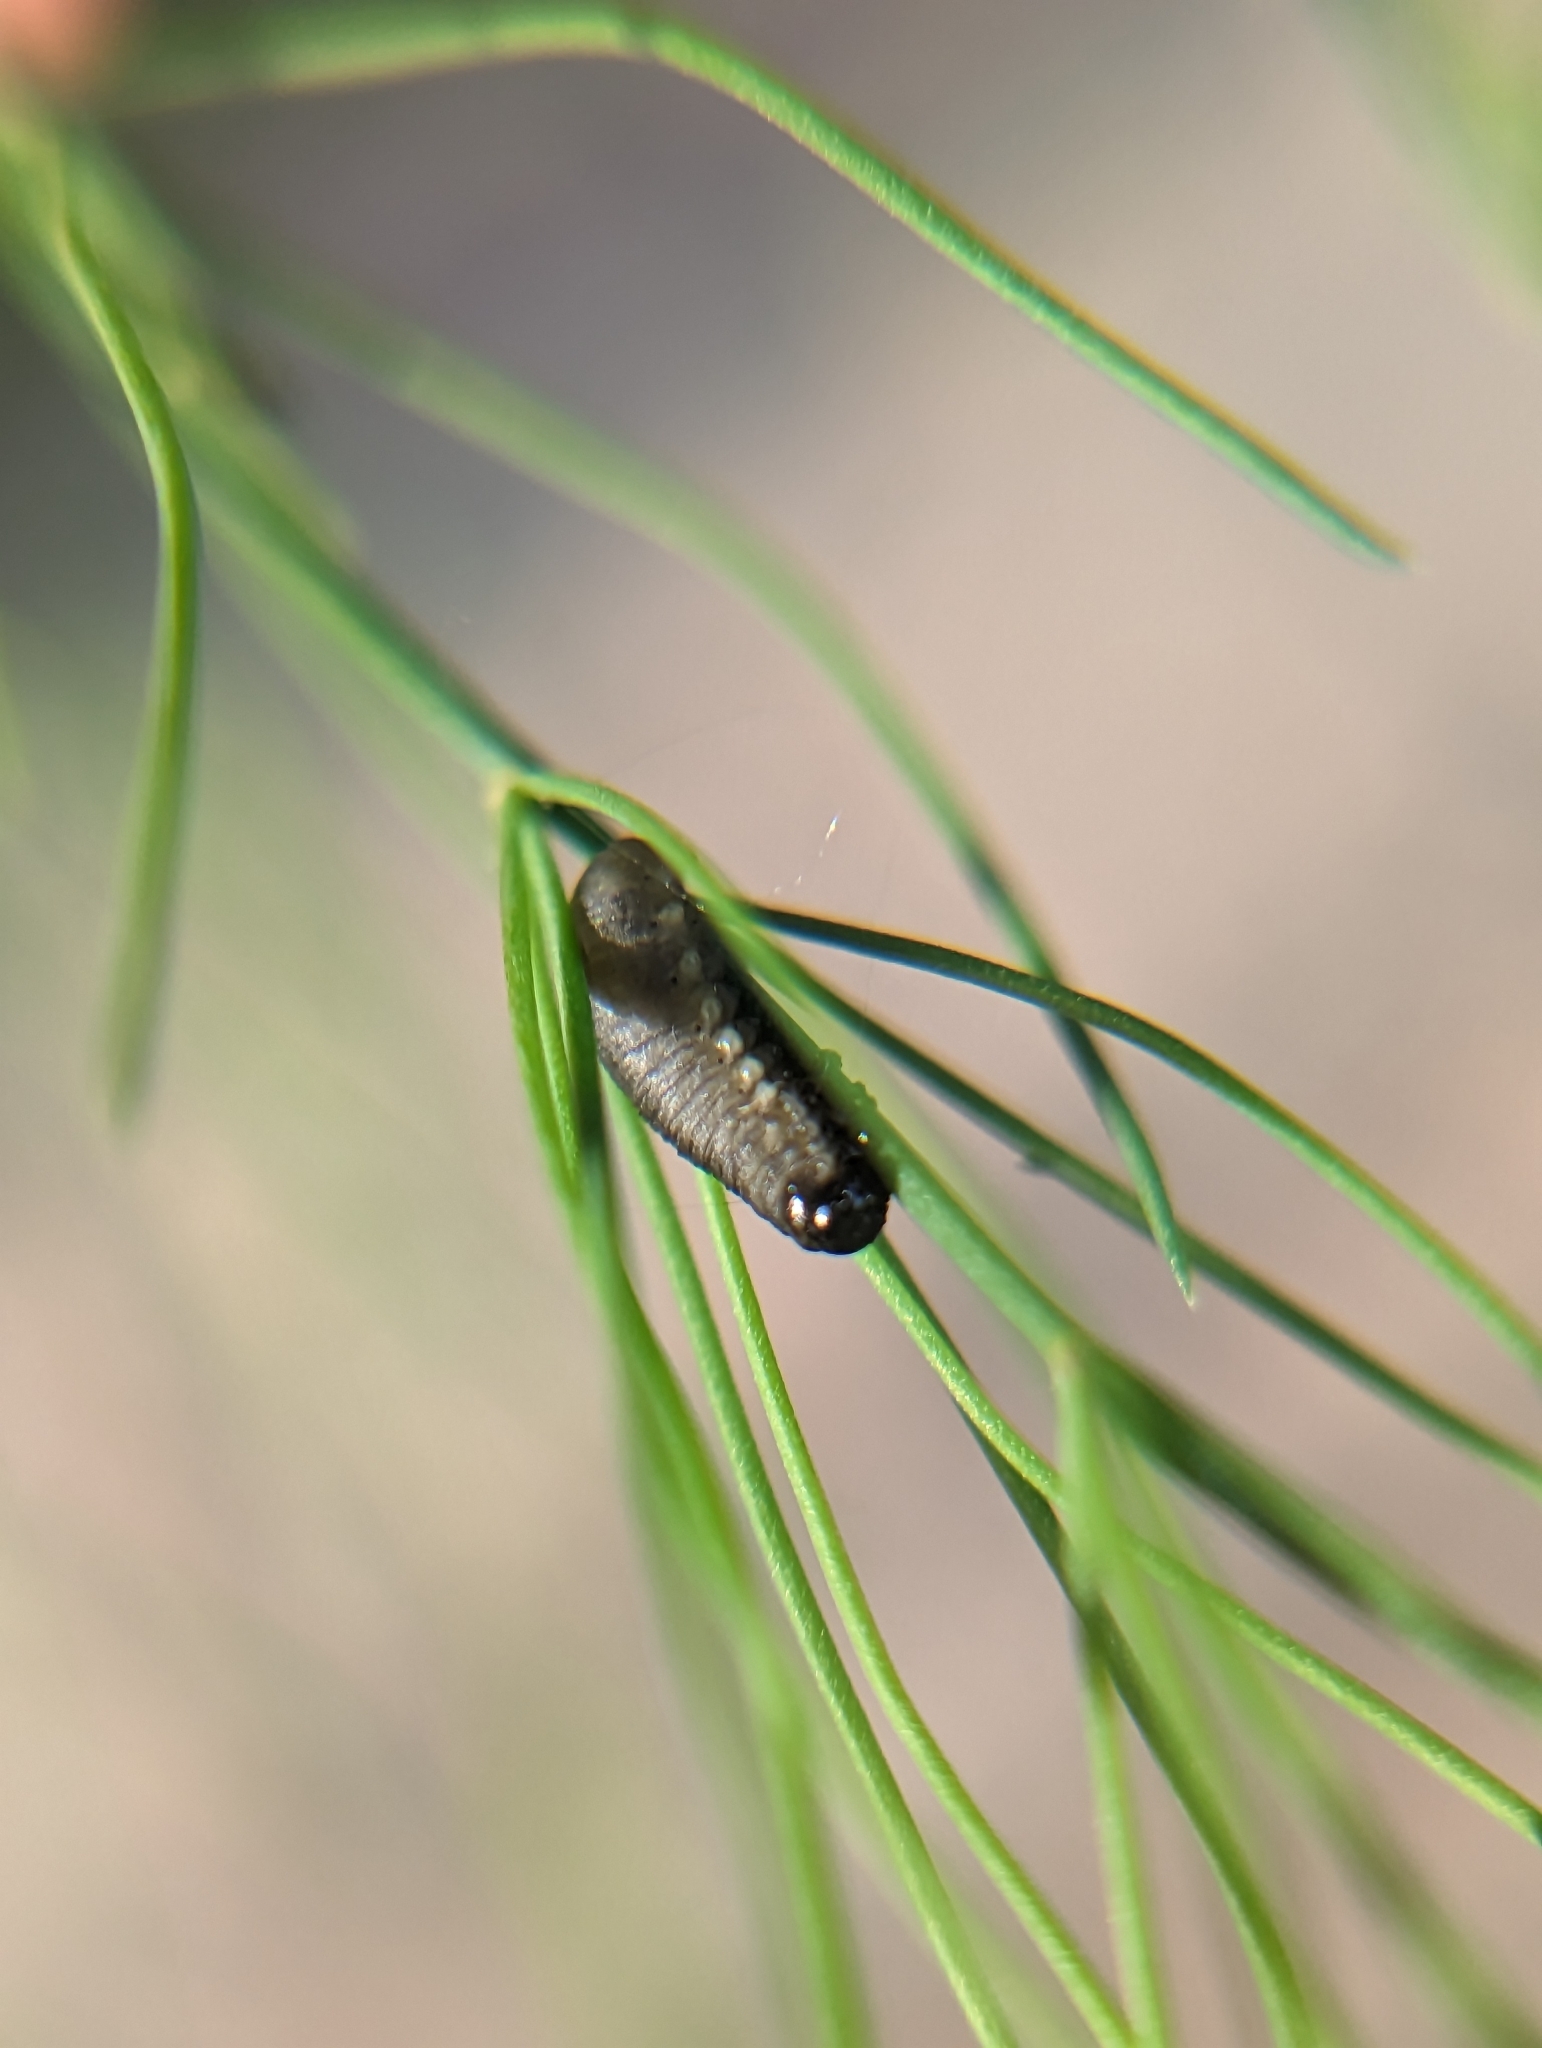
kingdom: Animalia
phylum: Arthropoda
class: Insecta
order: Coleoptera
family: Chrysomelidae
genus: Crioceris
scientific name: Crioceris asparagi
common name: Asparagus beetle
